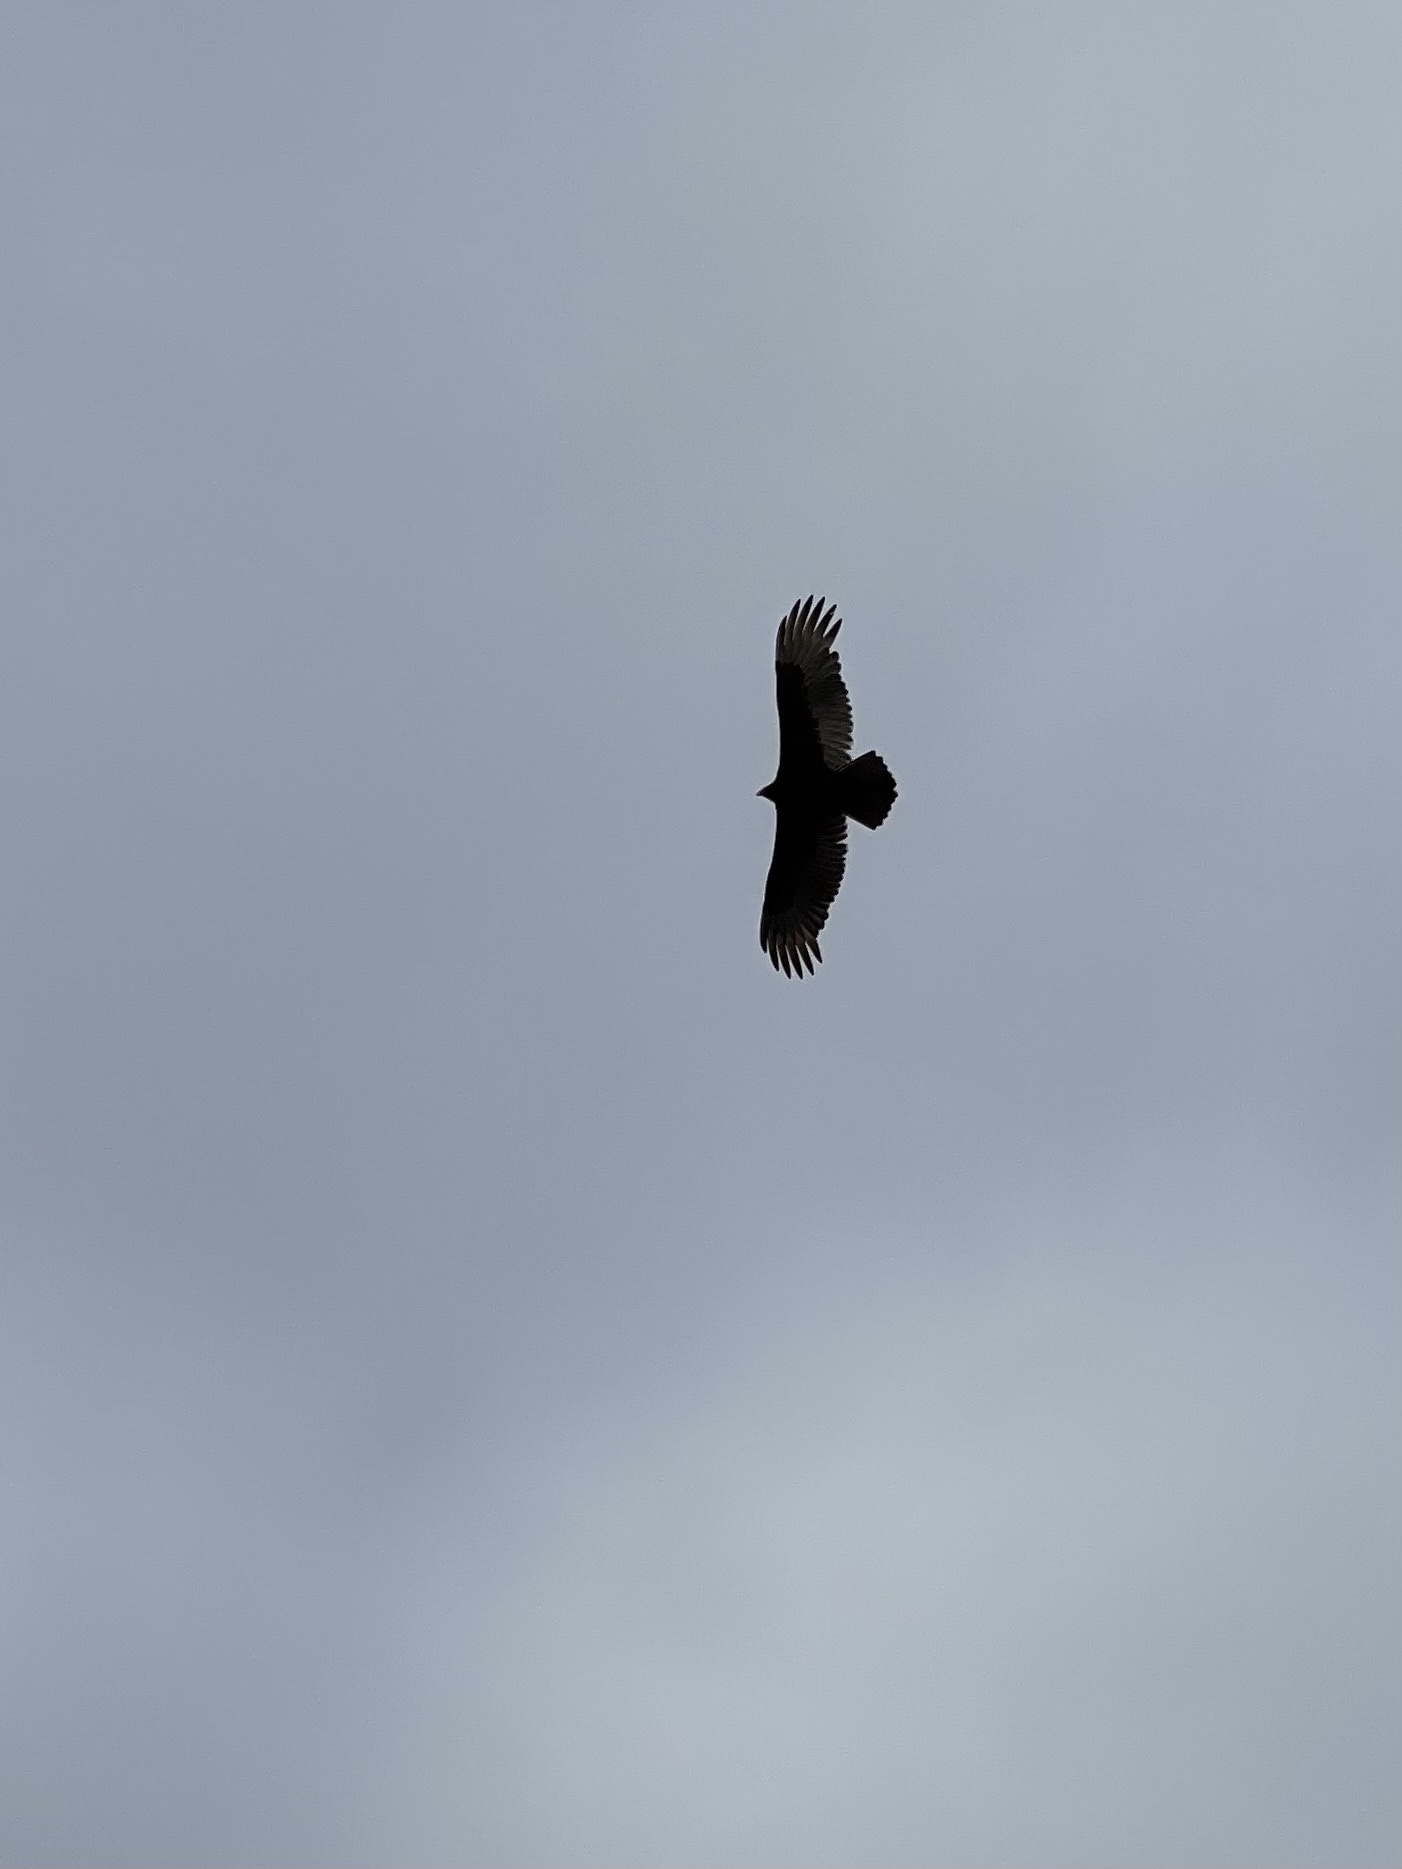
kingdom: Animalia
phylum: Chordata
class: Aves
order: Accipitriformes
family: Cathartidae
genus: Cathartes
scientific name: Cathartes aura
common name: Turkey vulture
